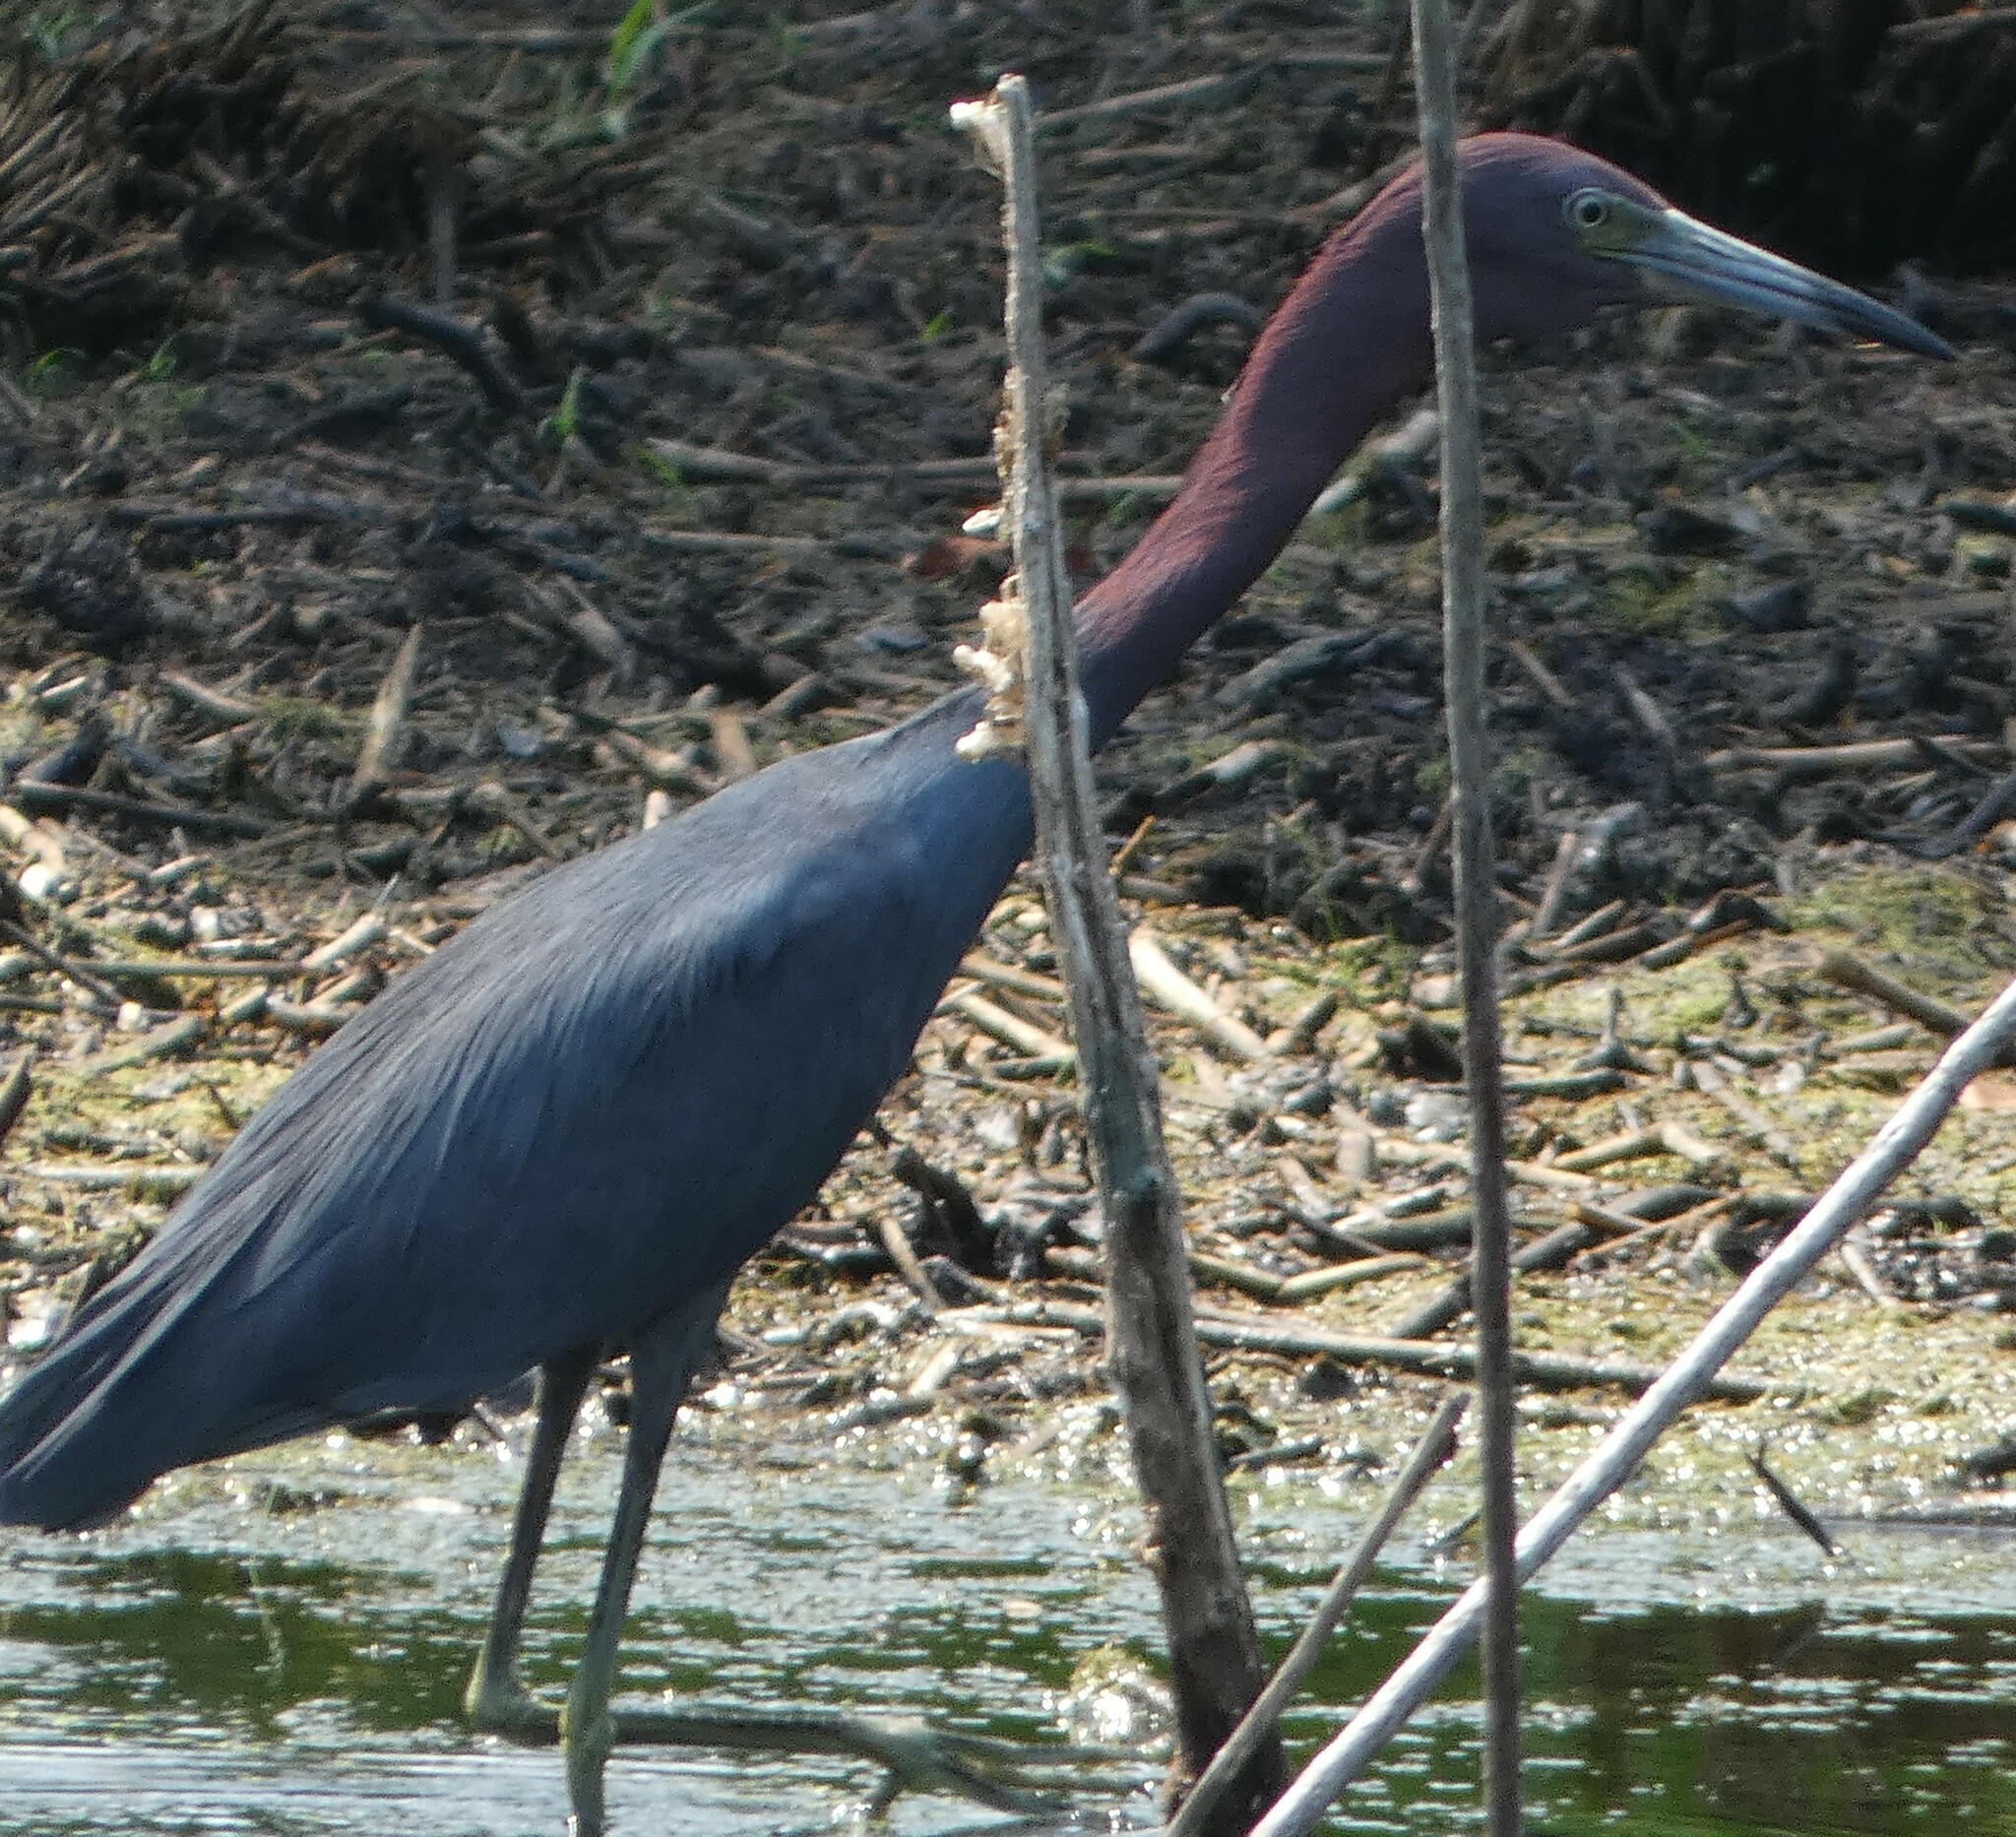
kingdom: Animalia
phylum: Chordata
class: Aves
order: Pelecaniformes
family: Ardeidae
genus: Egretta
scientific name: Egretta caerulea
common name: Little blue heron
